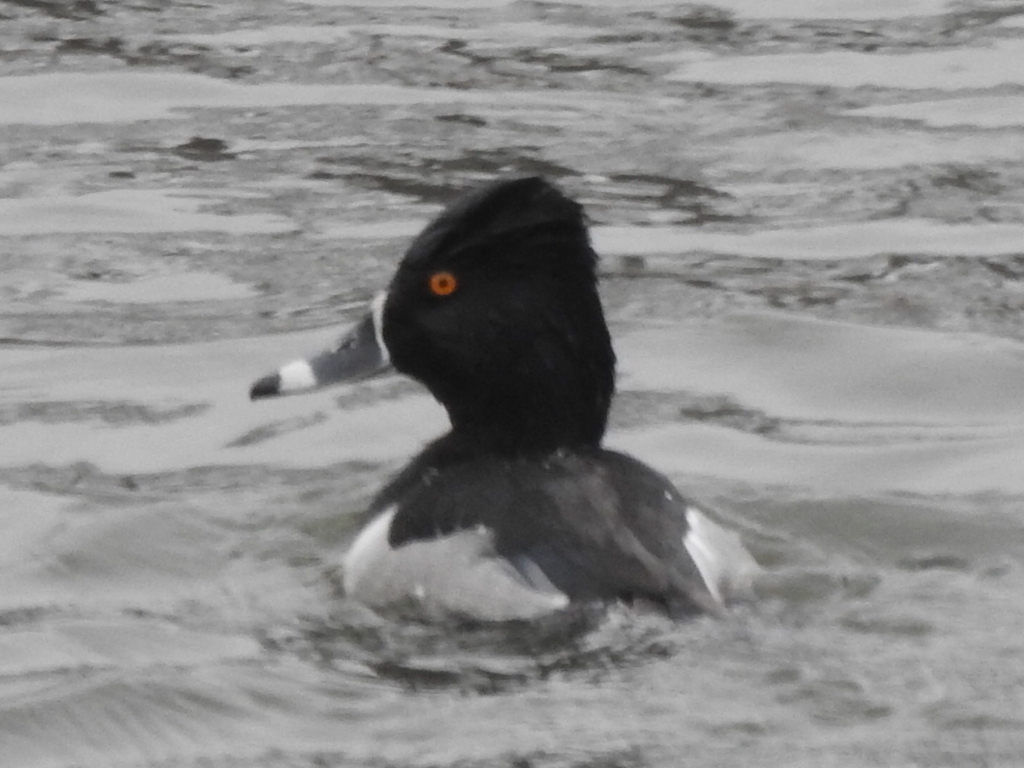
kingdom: Animalia
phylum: Chordata
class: Aves
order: Anseriformes
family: Anatidae
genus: Aythya
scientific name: Aythya collaris
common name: Ring-necked duck
